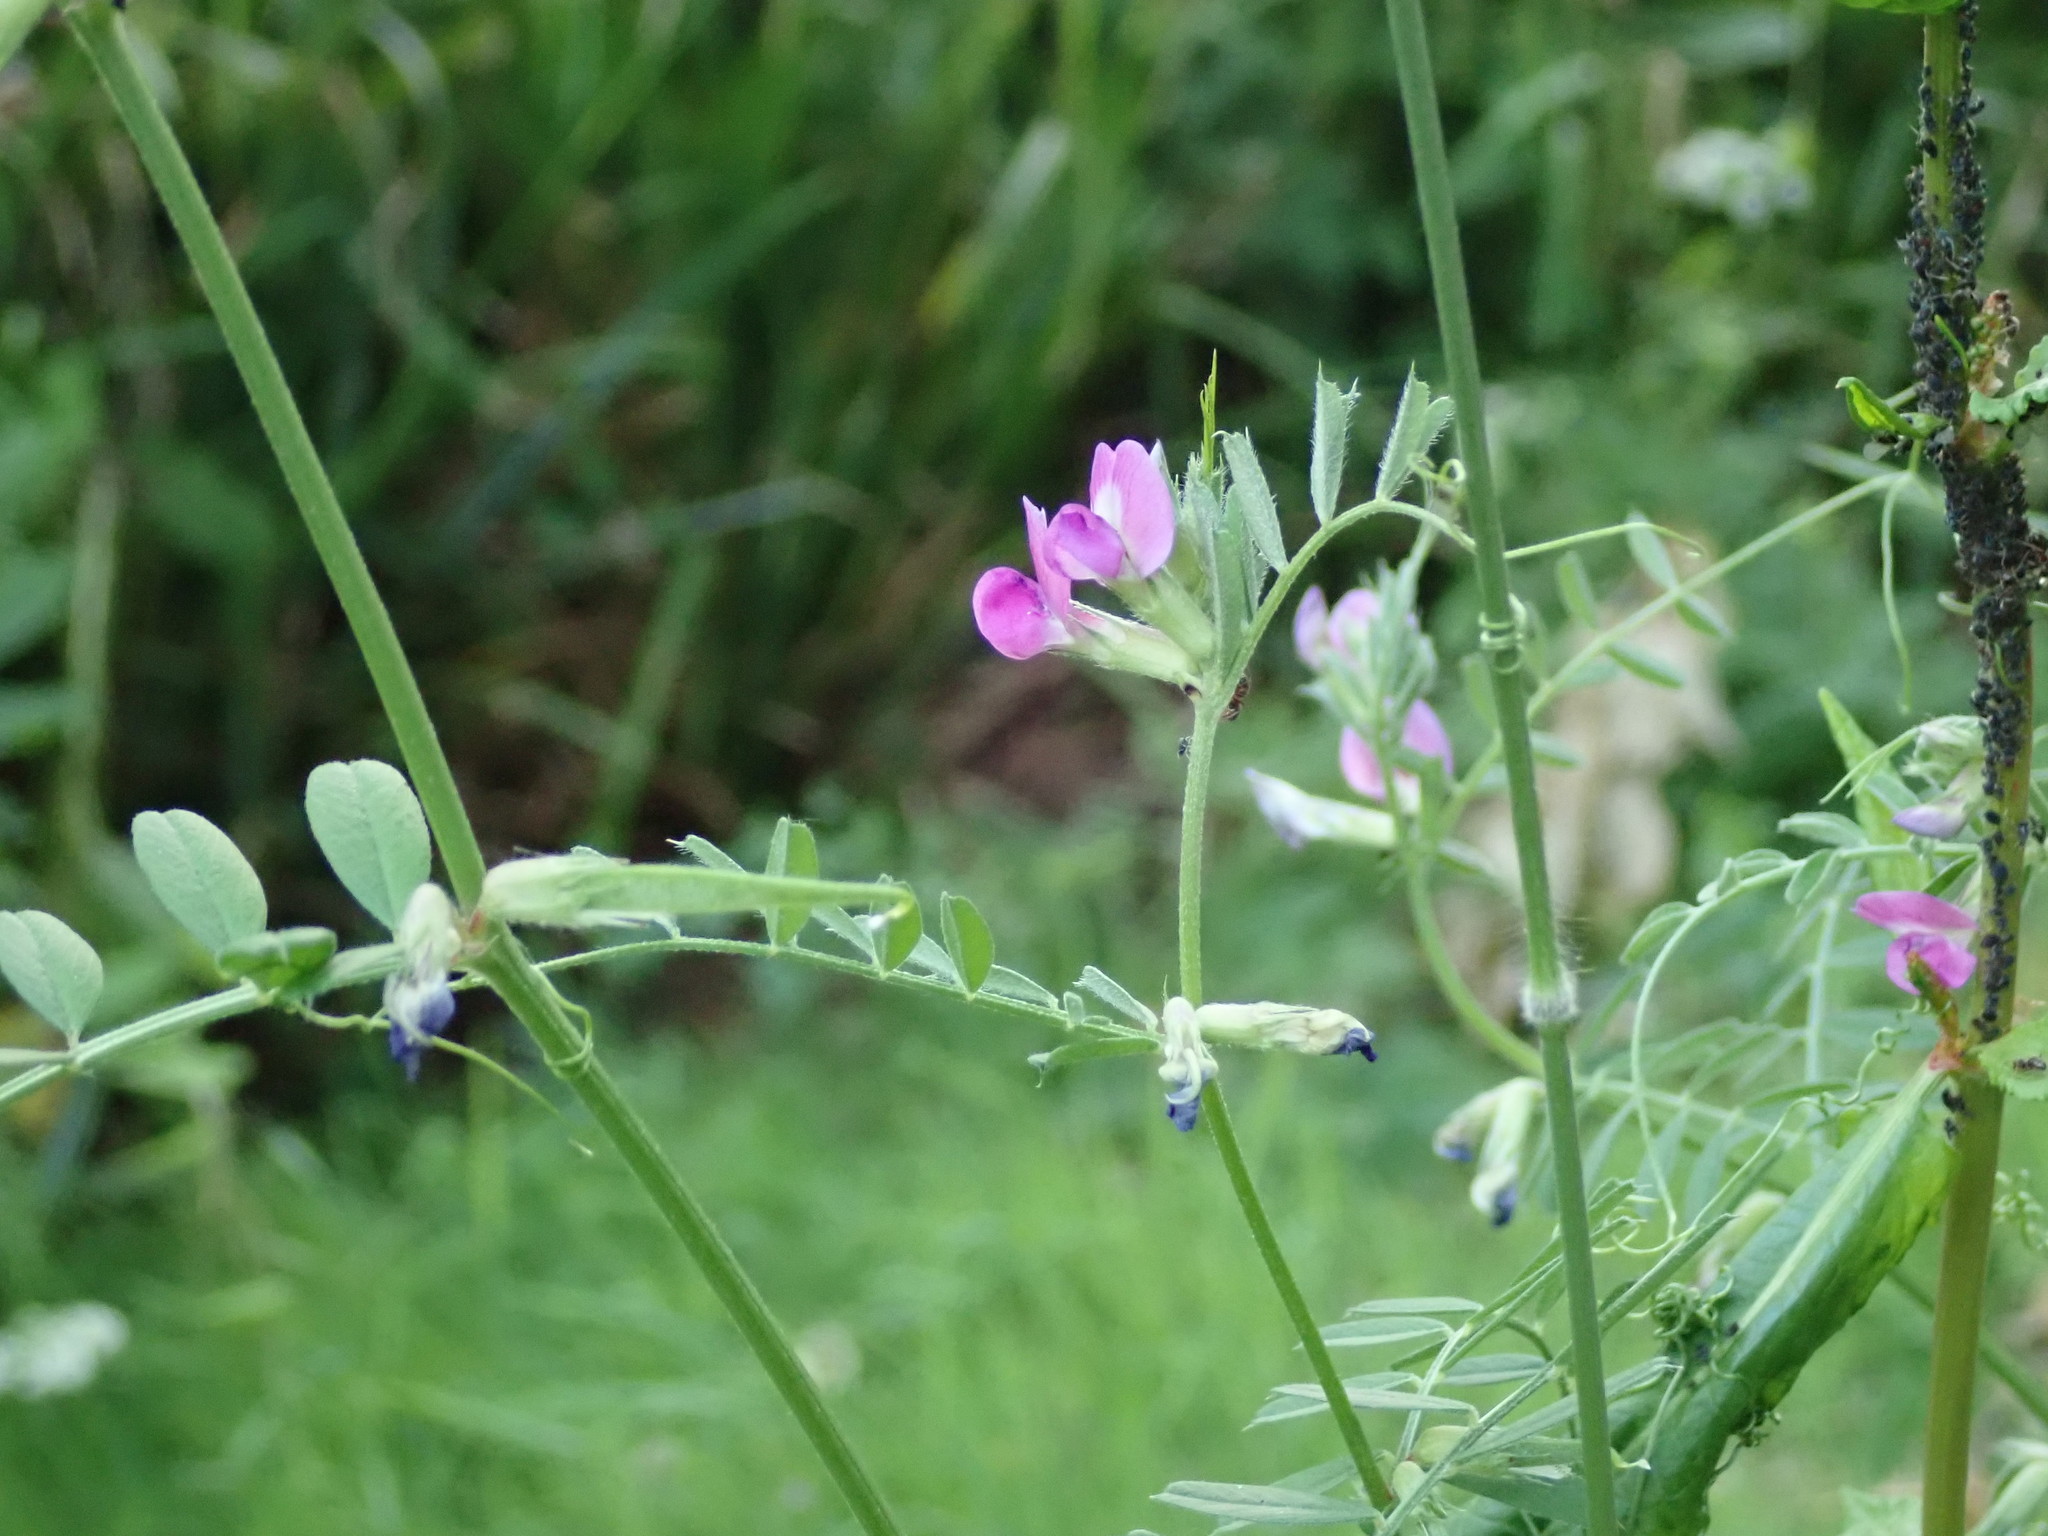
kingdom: Plantae
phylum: Tracheophyta
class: Magnoliopsida
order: Fabales
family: Fabaceae
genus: Vicia
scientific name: Vicia sativa
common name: Garden vetch
